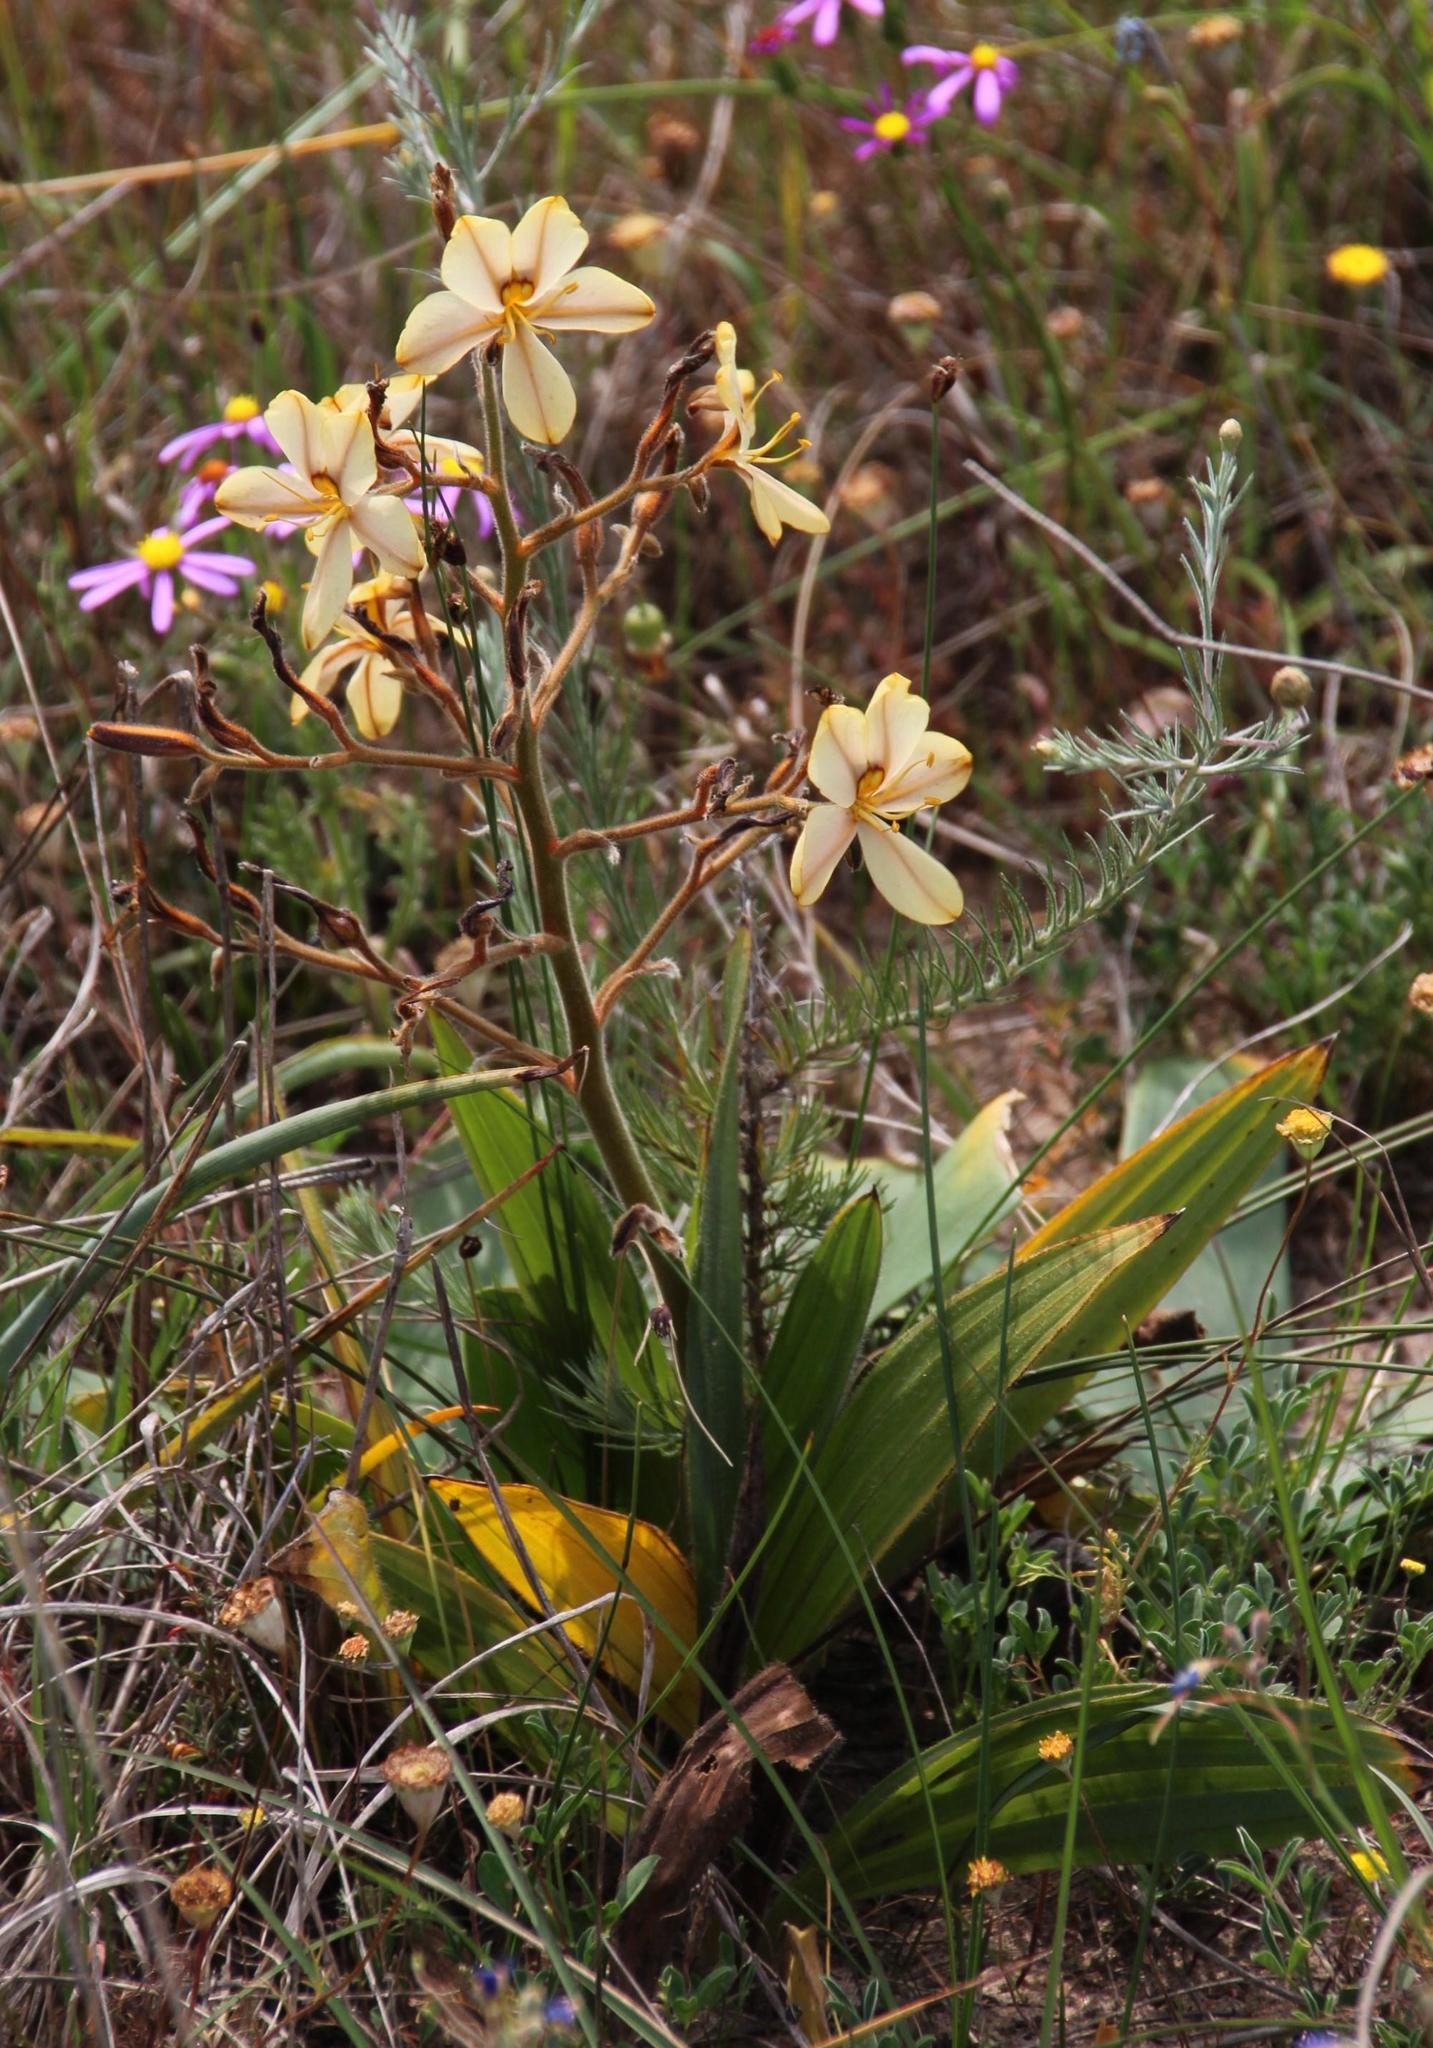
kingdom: Plantae
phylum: Tracheophyta
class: Liliopsida
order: Commelinales
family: Haemodoraceae
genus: Wachendorfia
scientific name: Wachendorfia paniculata
